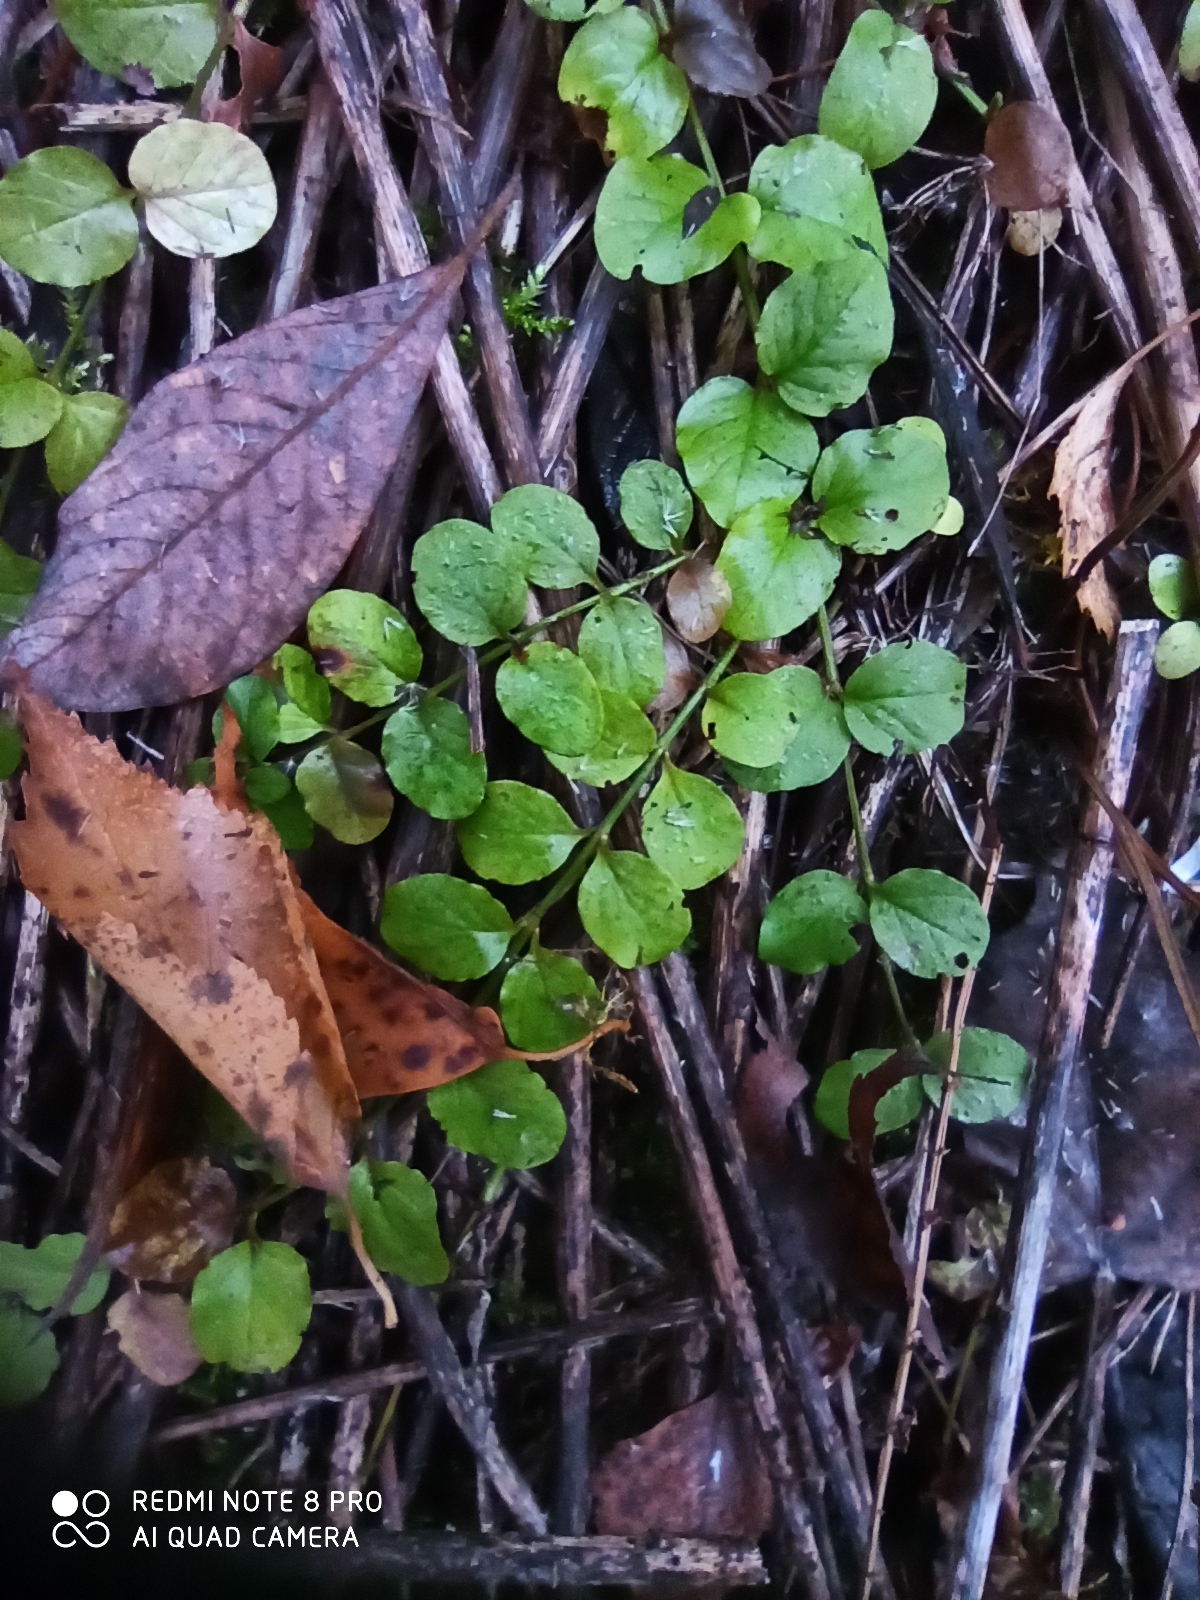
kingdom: Plantae
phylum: Tracheophyta
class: Magnoliopsida
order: Ericales
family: Primulaceae
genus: Lysimachia
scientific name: Lysimachia nummularia
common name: Moneywort
